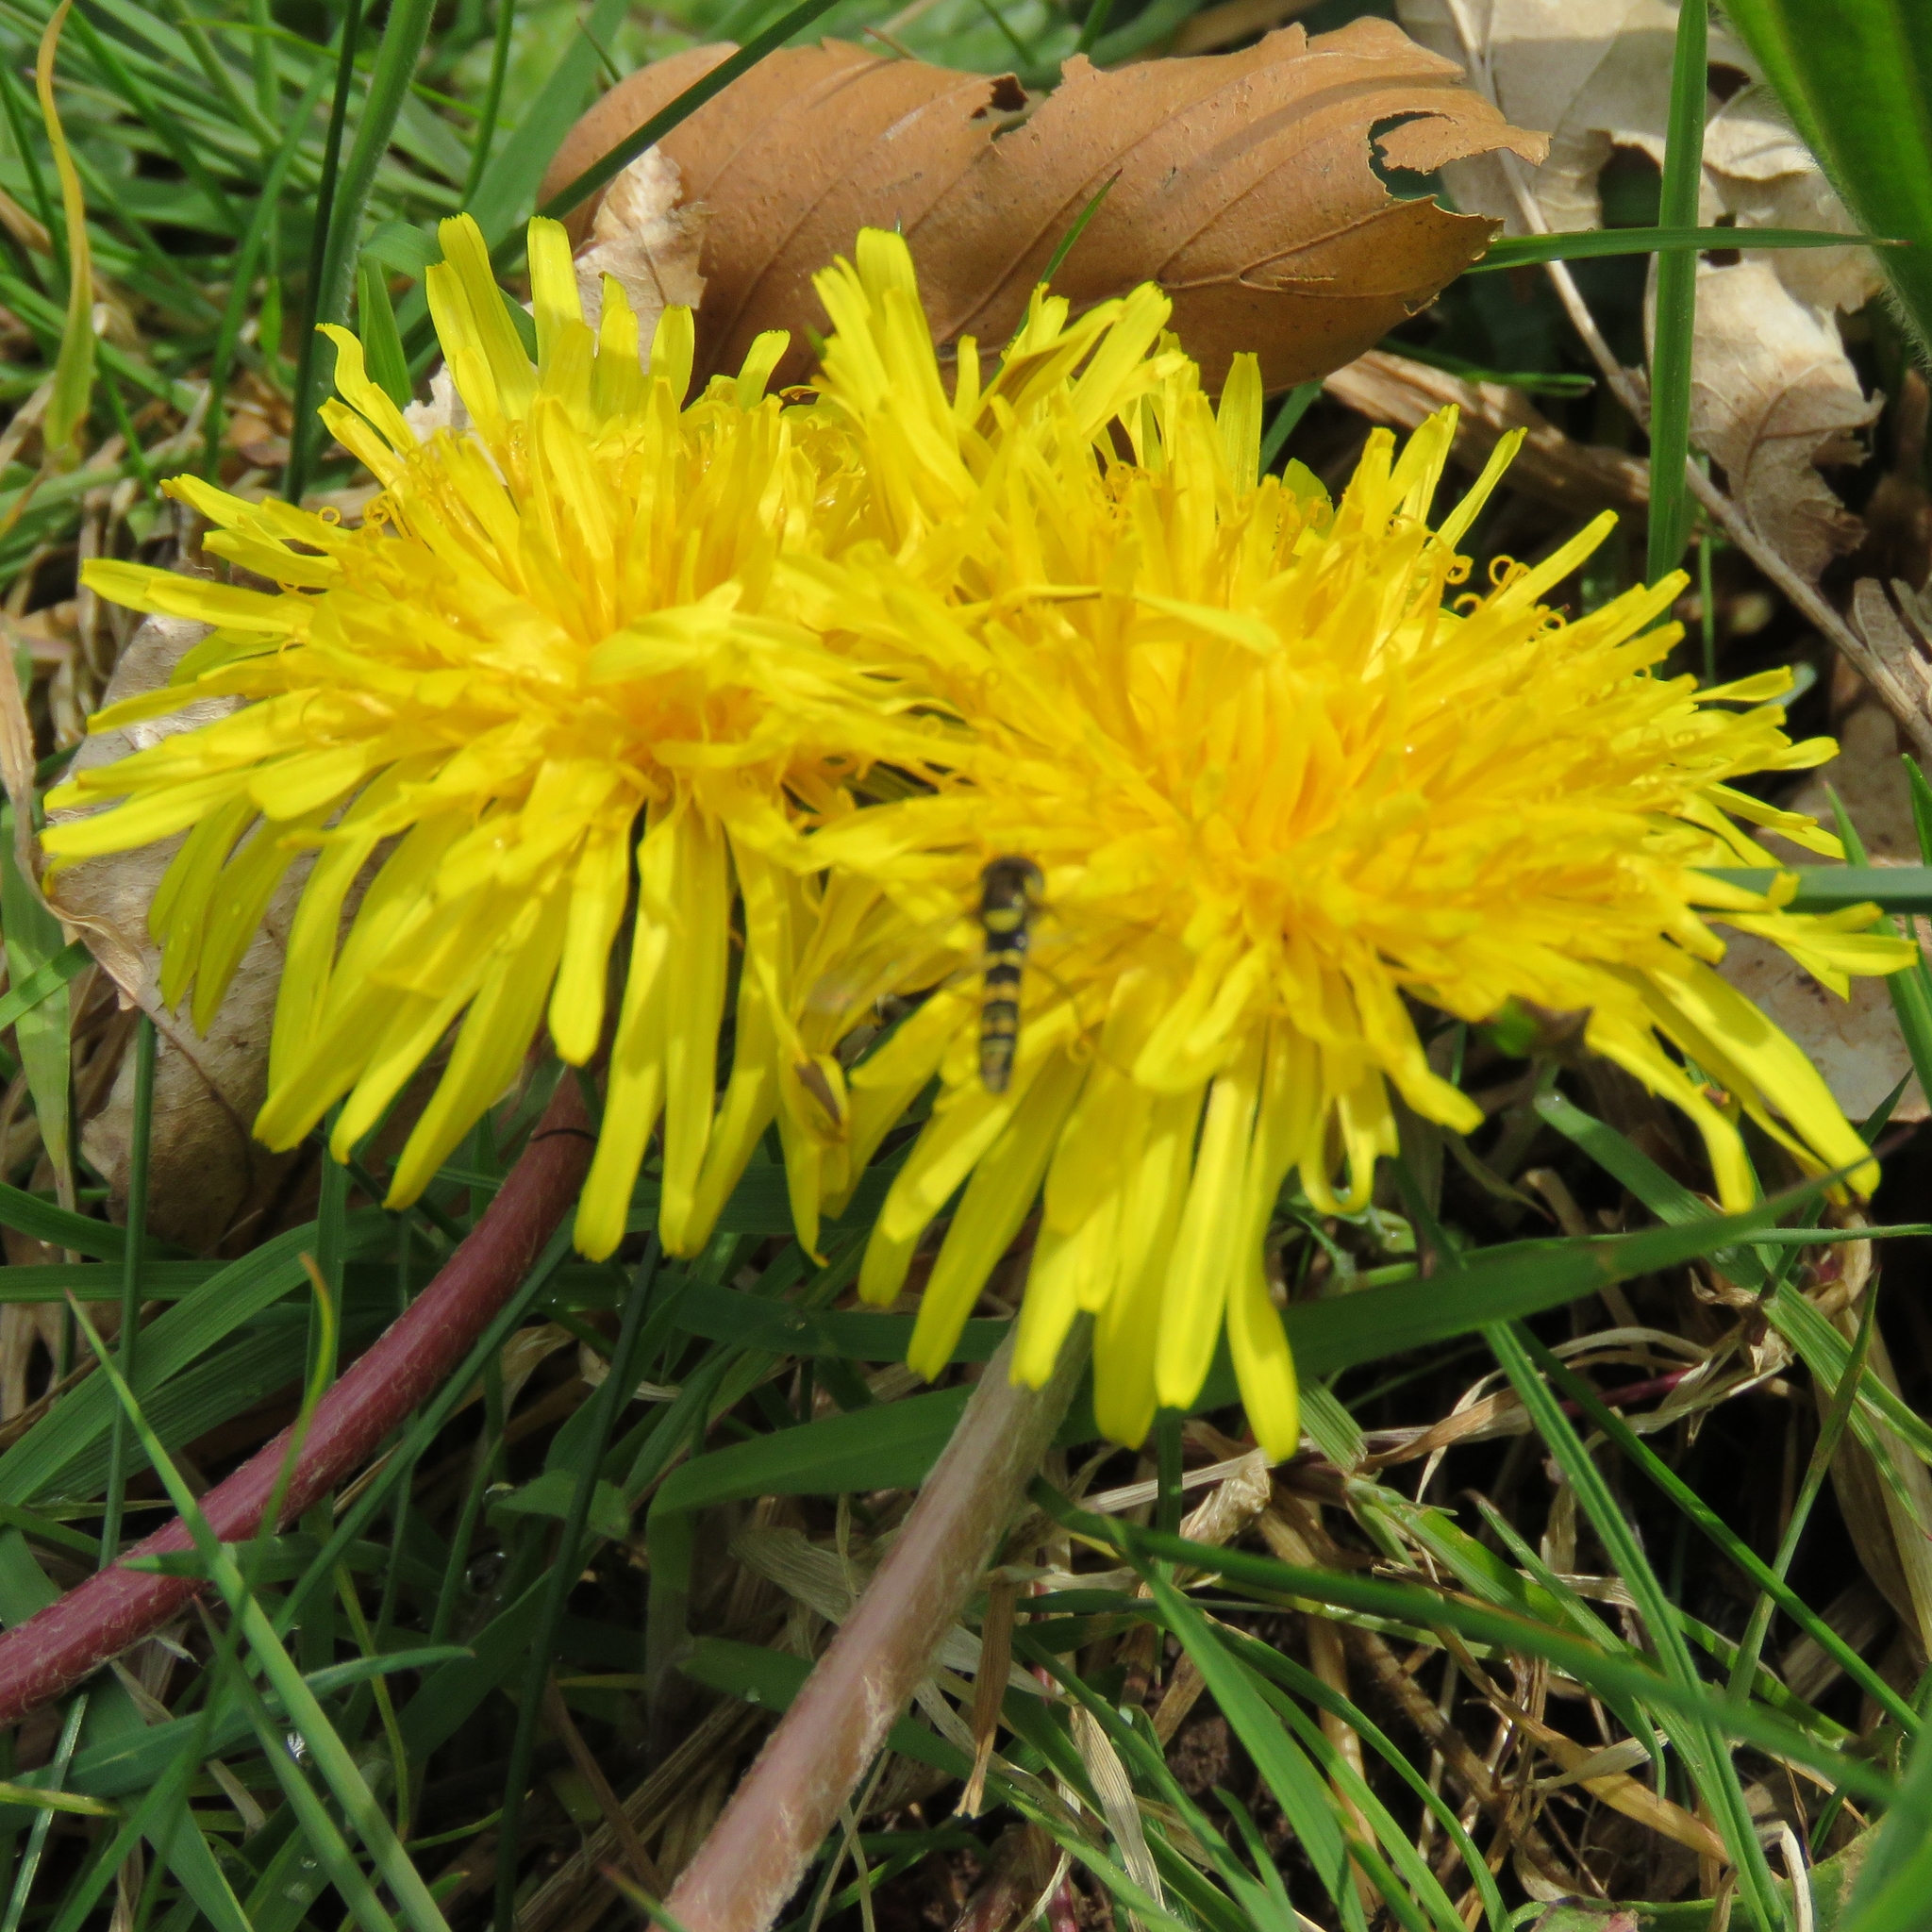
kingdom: Plantae
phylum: Tracheophyta
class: Magnoliopsida
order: Asterales
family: Asteraceae
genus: Taraxacum
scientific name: Taraxacum officinale
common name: Common dandelion
